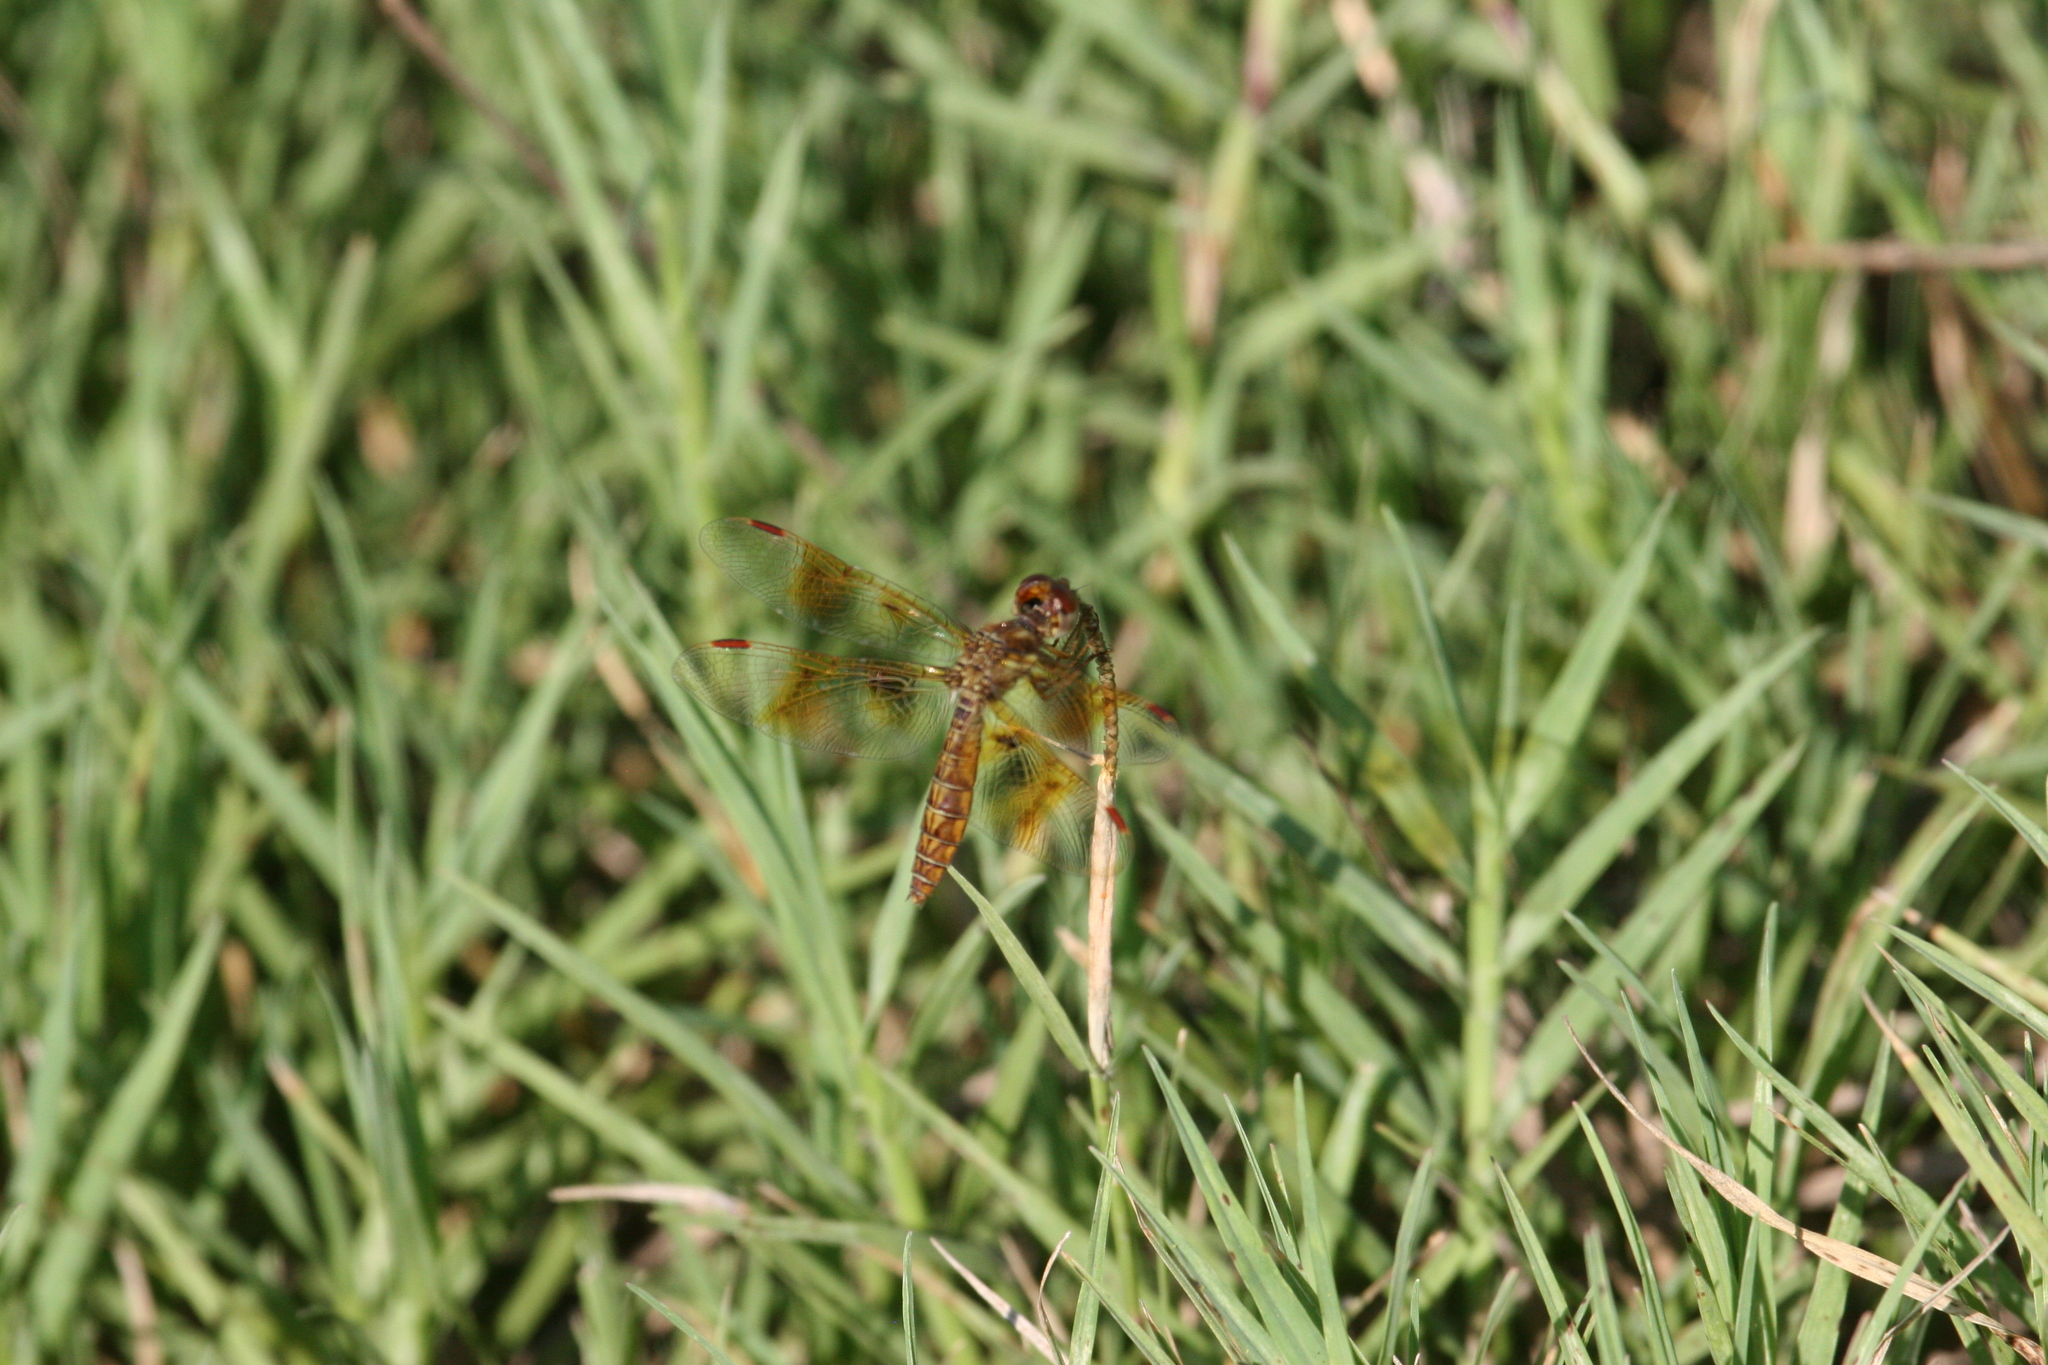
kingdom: Animalia
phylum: Arthropoda
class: Insecta
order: Odonata
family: Libellulidae
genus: Perithemis
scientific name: Perithemis tenera
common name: Eastern amberwing
